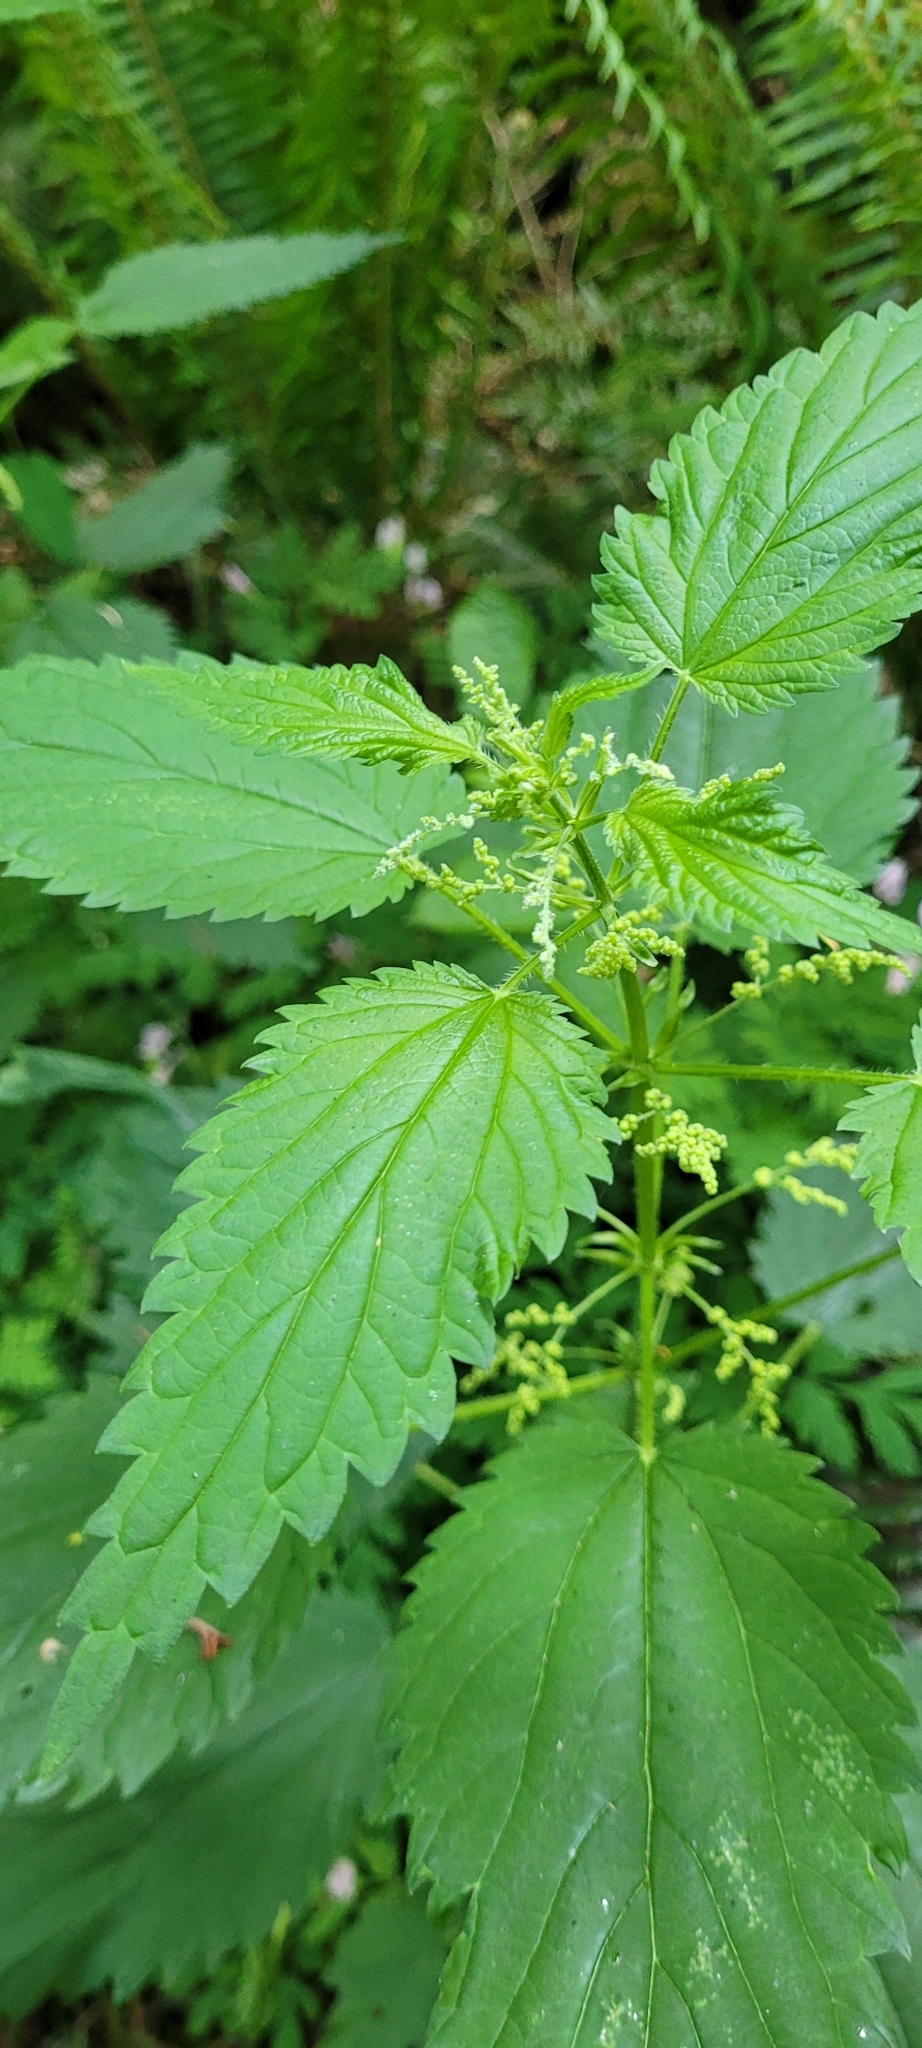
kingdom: Plantae
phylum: Tracheophyta
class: Magnoliopsida
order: Rosales
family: Urticaceae
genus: Urtica
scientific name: Urtica dioica
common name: Common nettle
